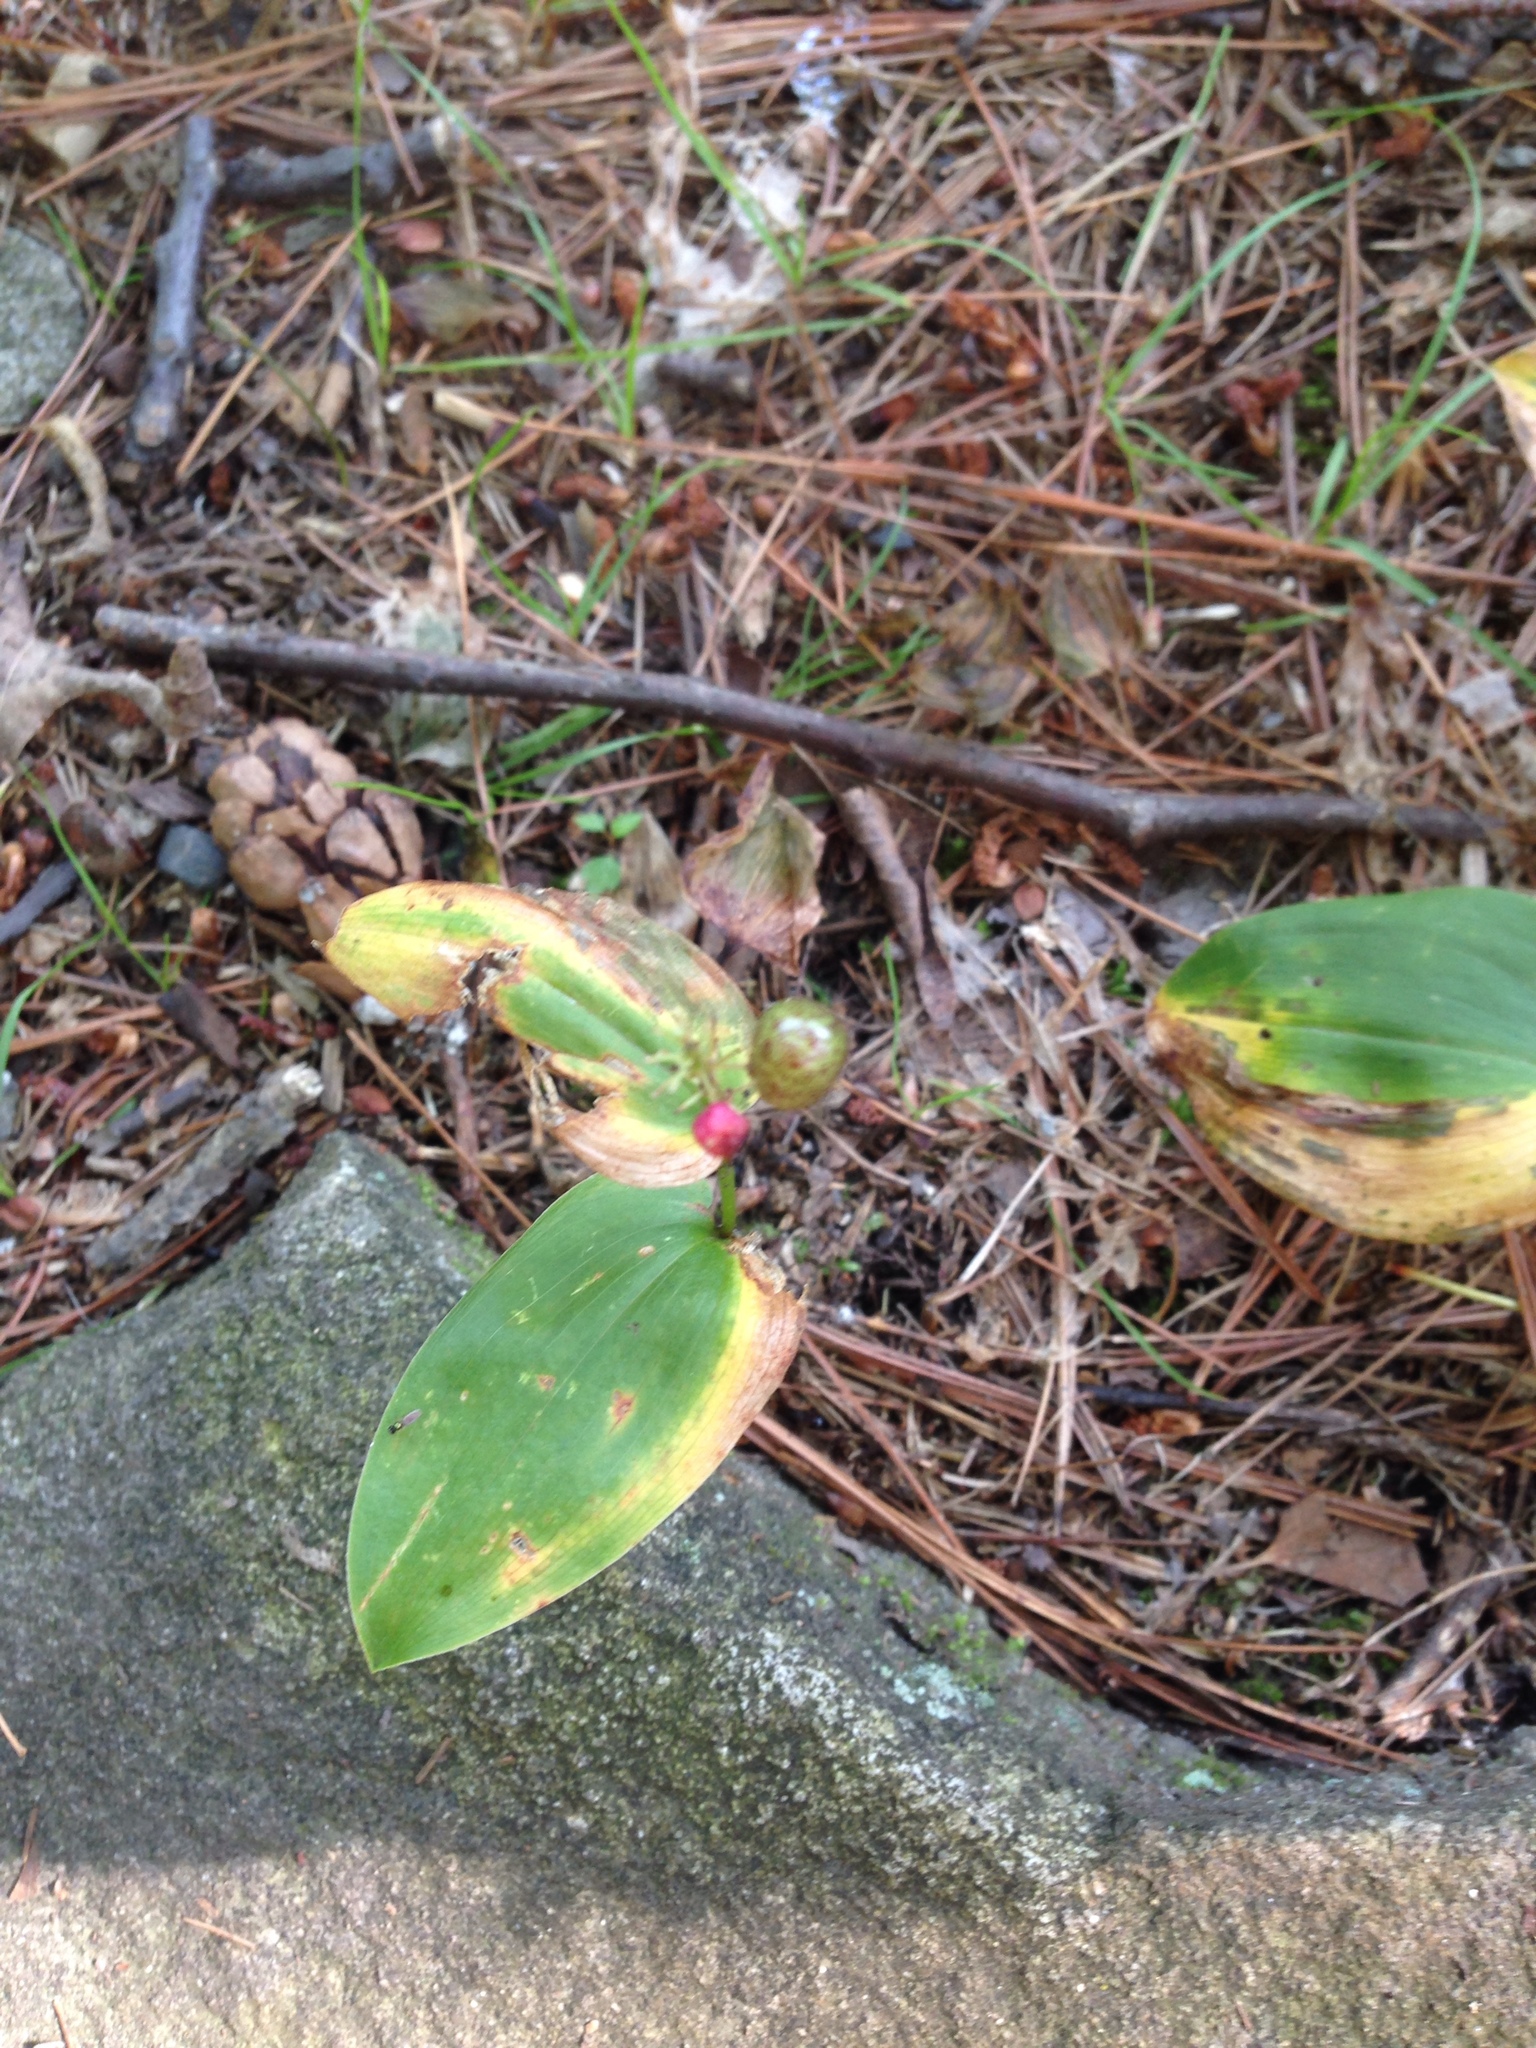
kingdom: Plantae
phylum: Tracheophyta
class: Liliopsida
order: Asparagales
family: Asparagaceae
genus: Maianthemum
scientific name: Maianthemum canadense
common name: False lily-of-the-valley
